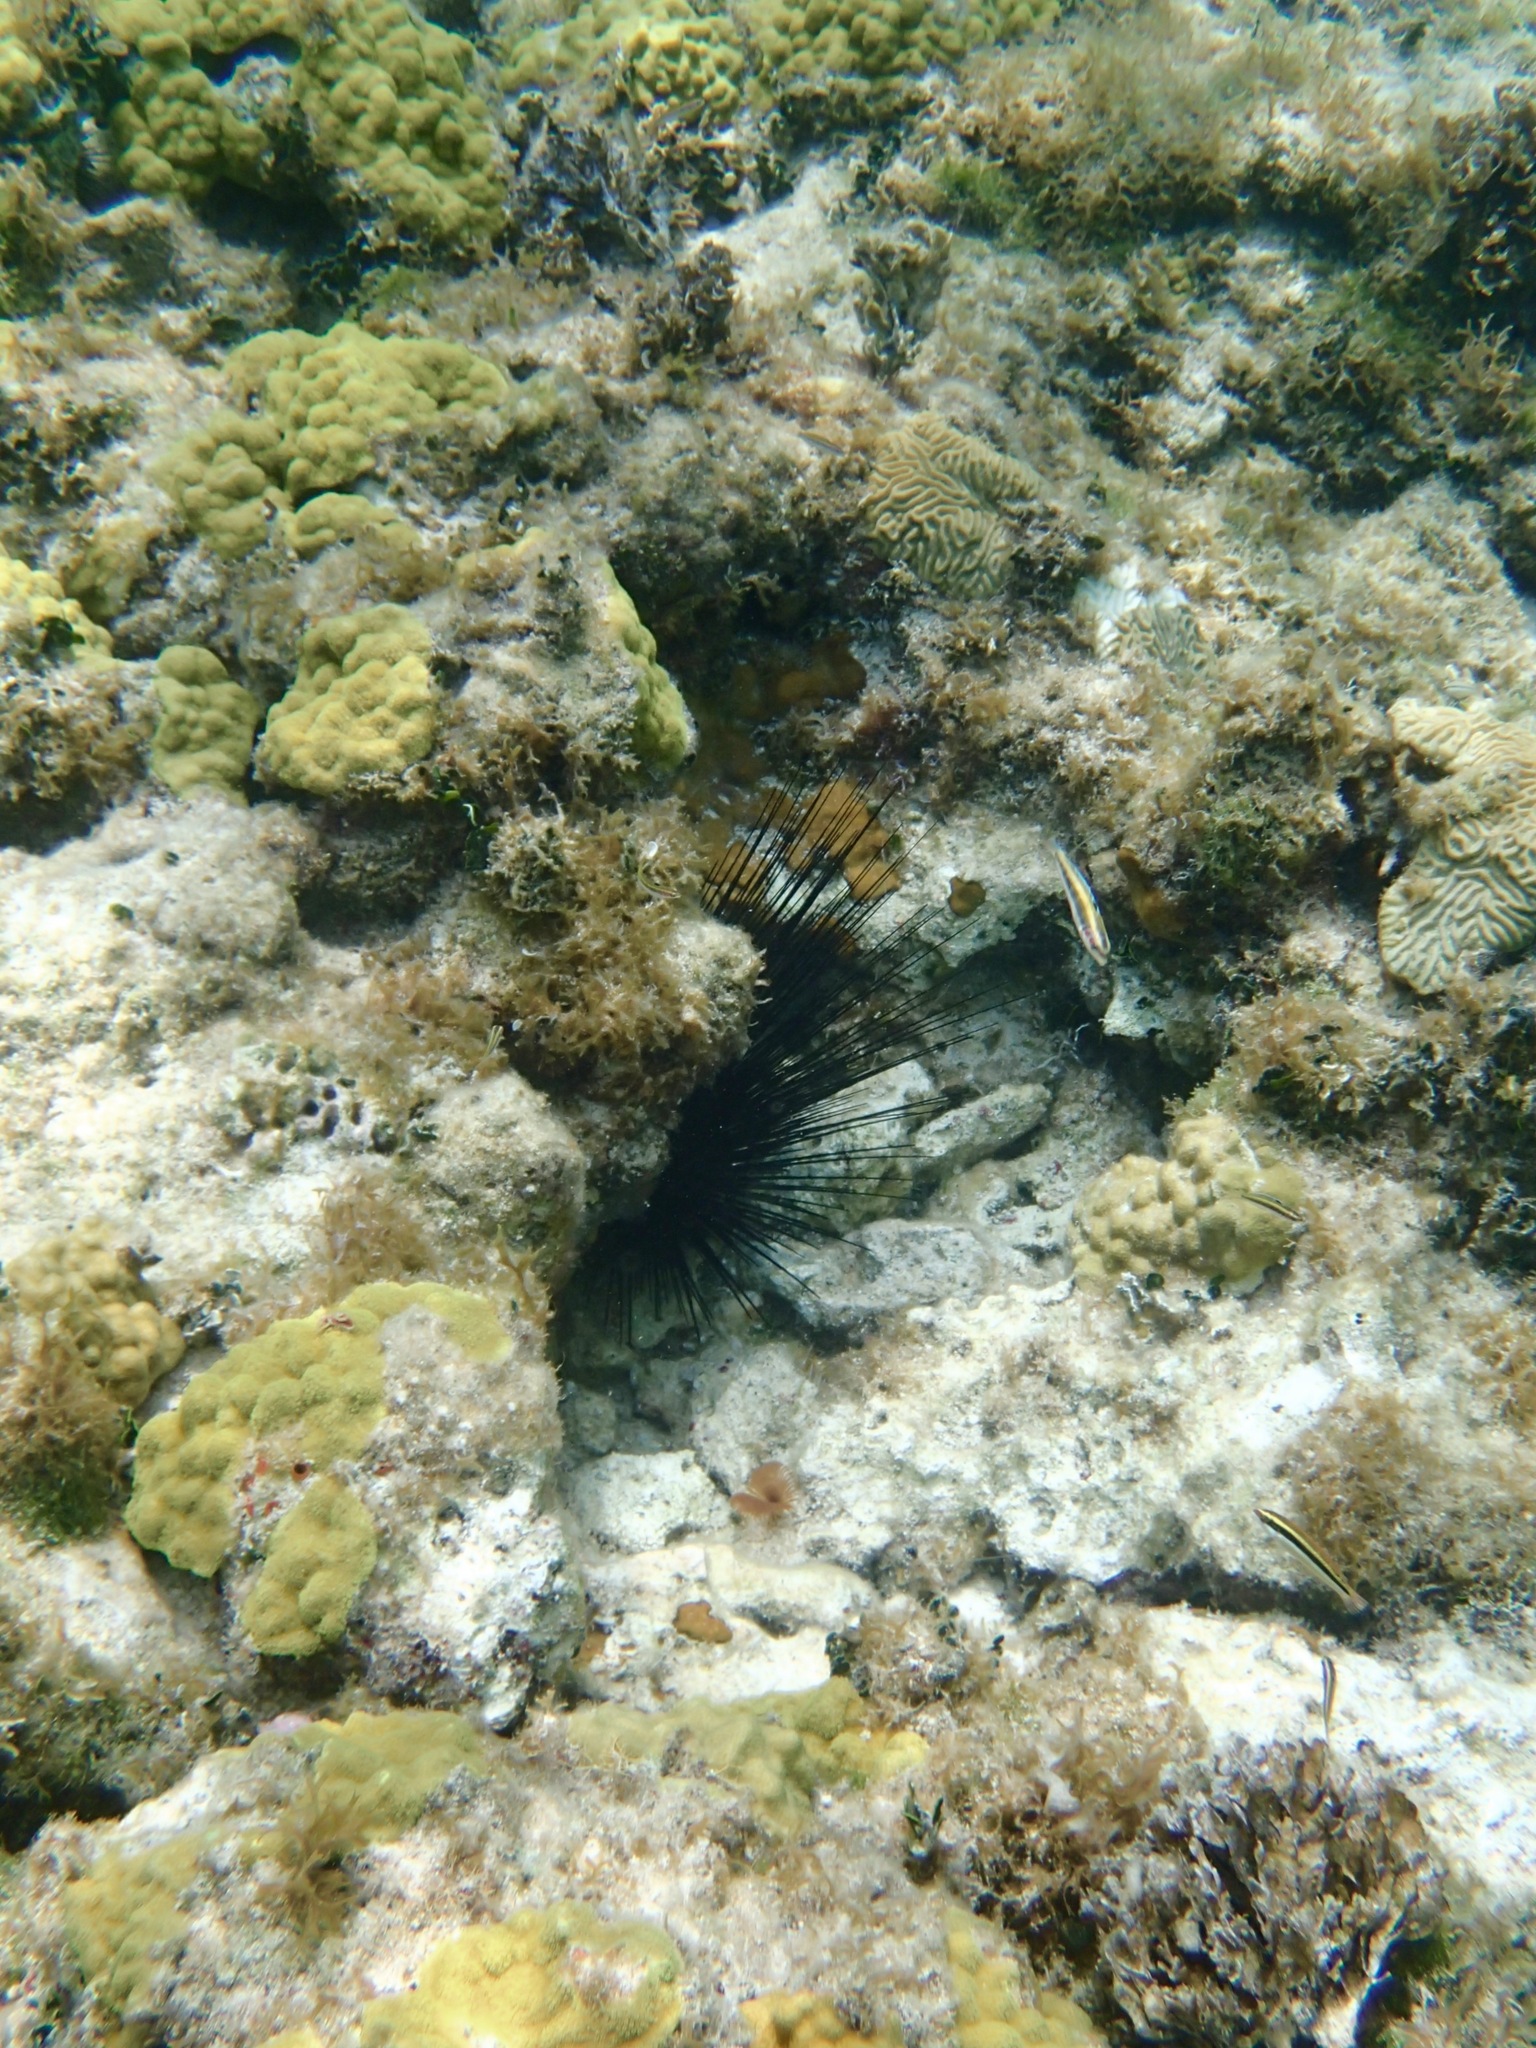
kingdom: Animalia
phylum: Echinodermata
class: Echinoidea
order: Diadematoida
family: Diadematidae
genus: Diadema
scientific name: Diadema antillarum
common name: Spiny urchin
